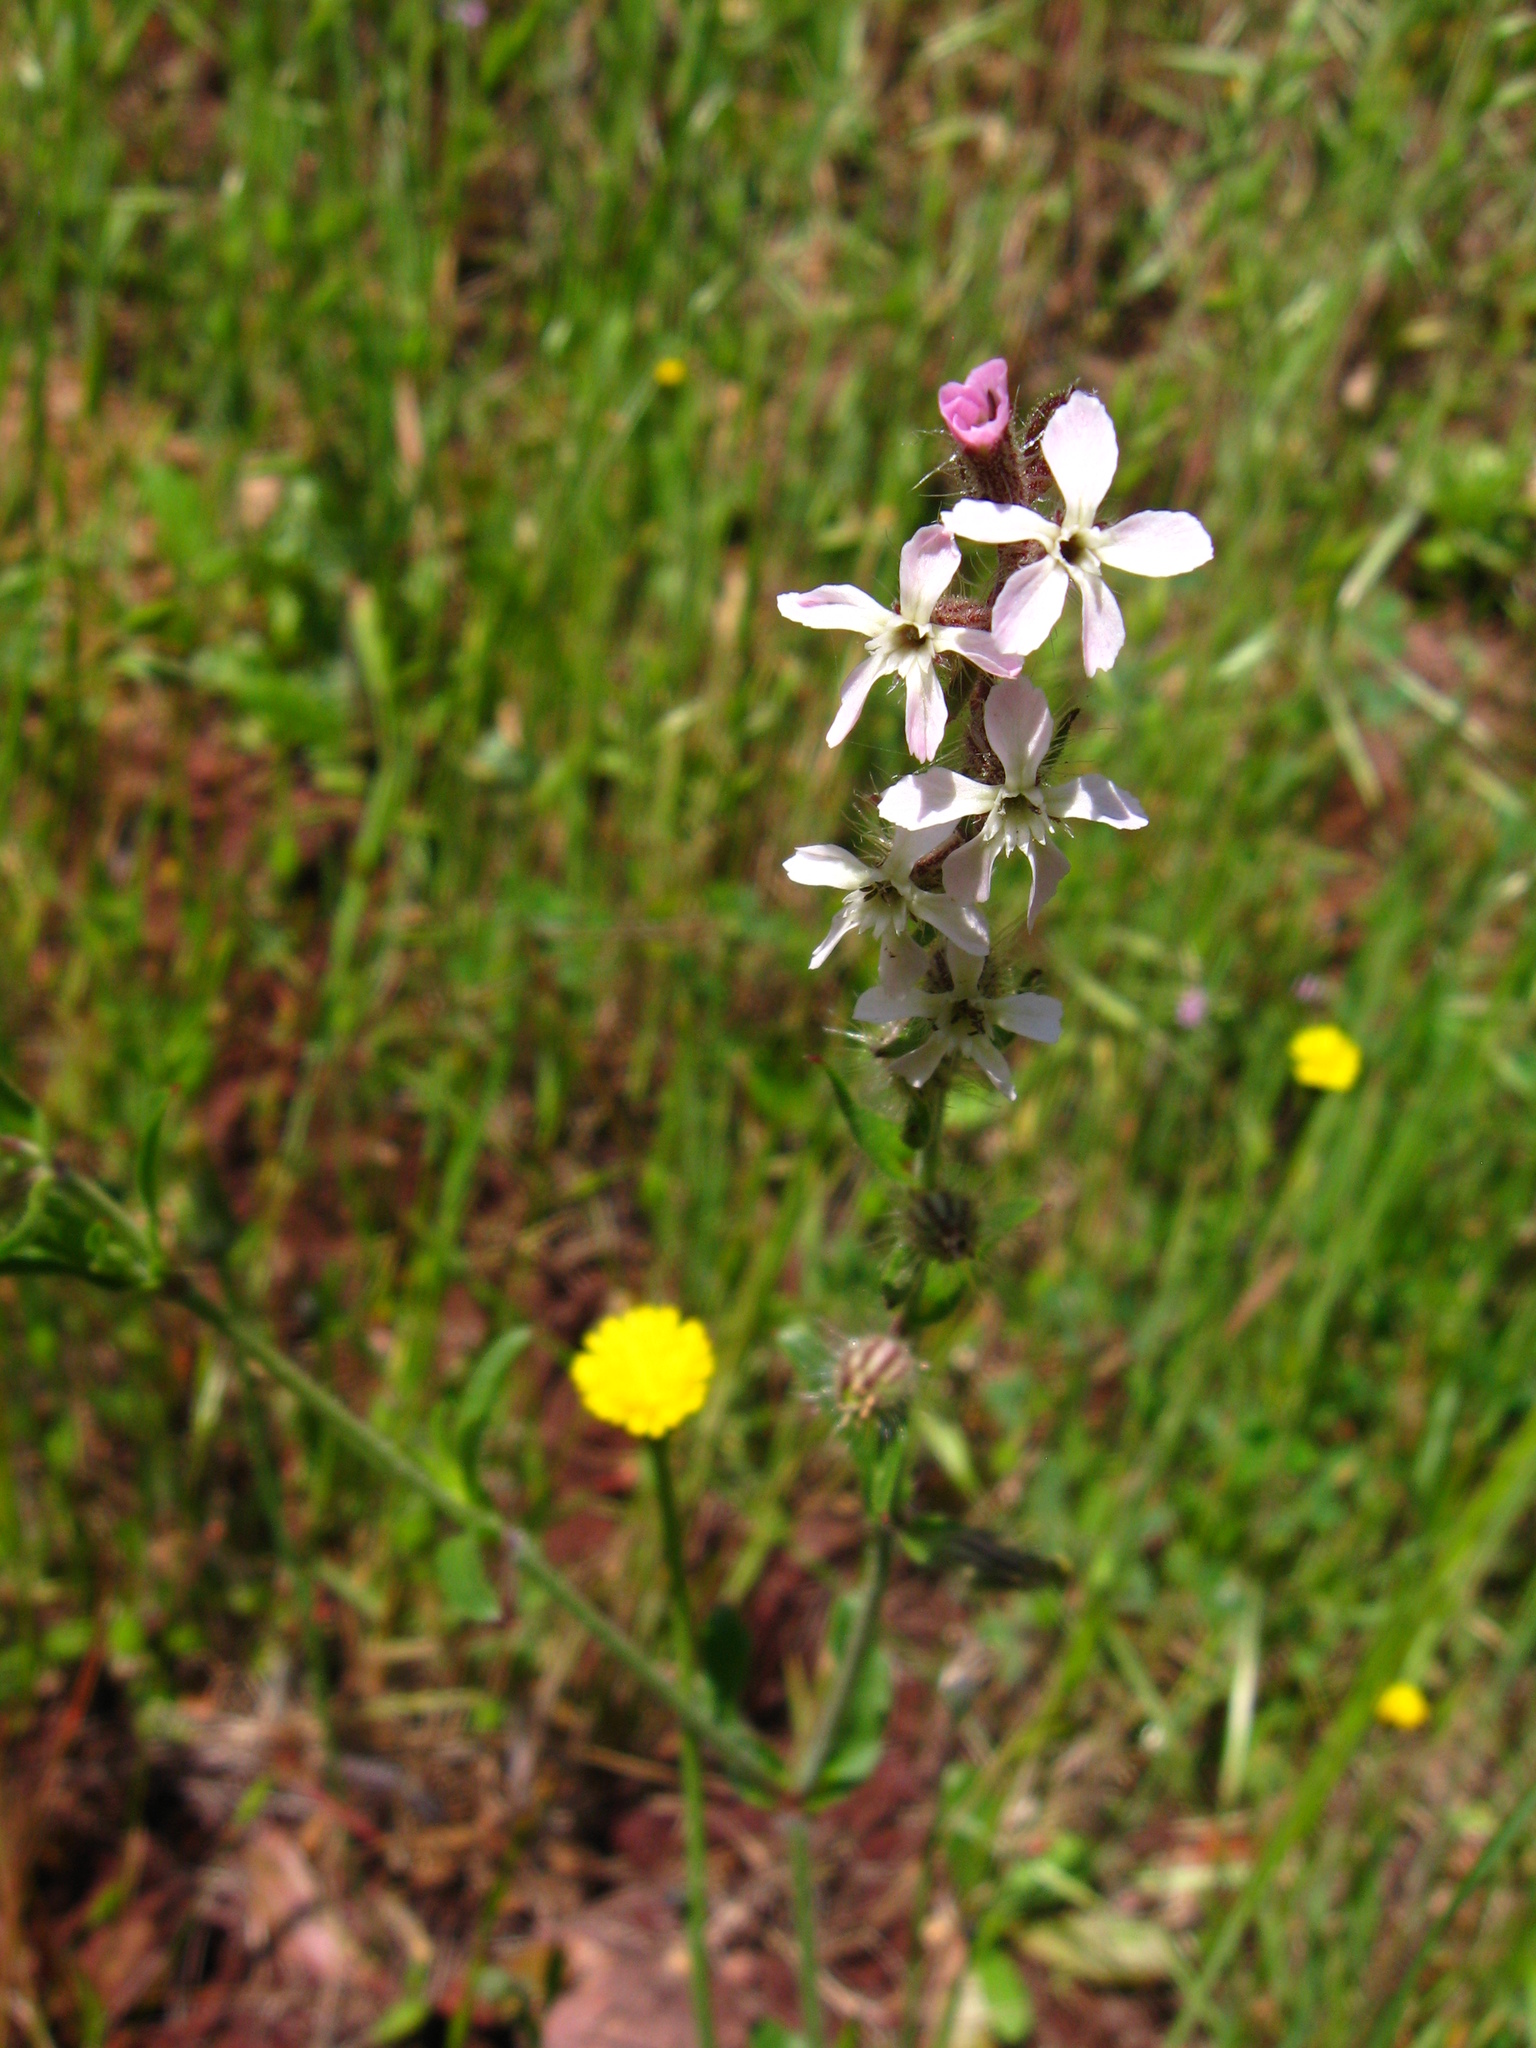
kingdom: Plantae
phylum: Tracheophyta
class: Magnoliopsida
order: Caryophyllales
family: Caryophyllaceae
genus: Silene
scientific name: Silene gallica
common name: Small-flowered catchfly
